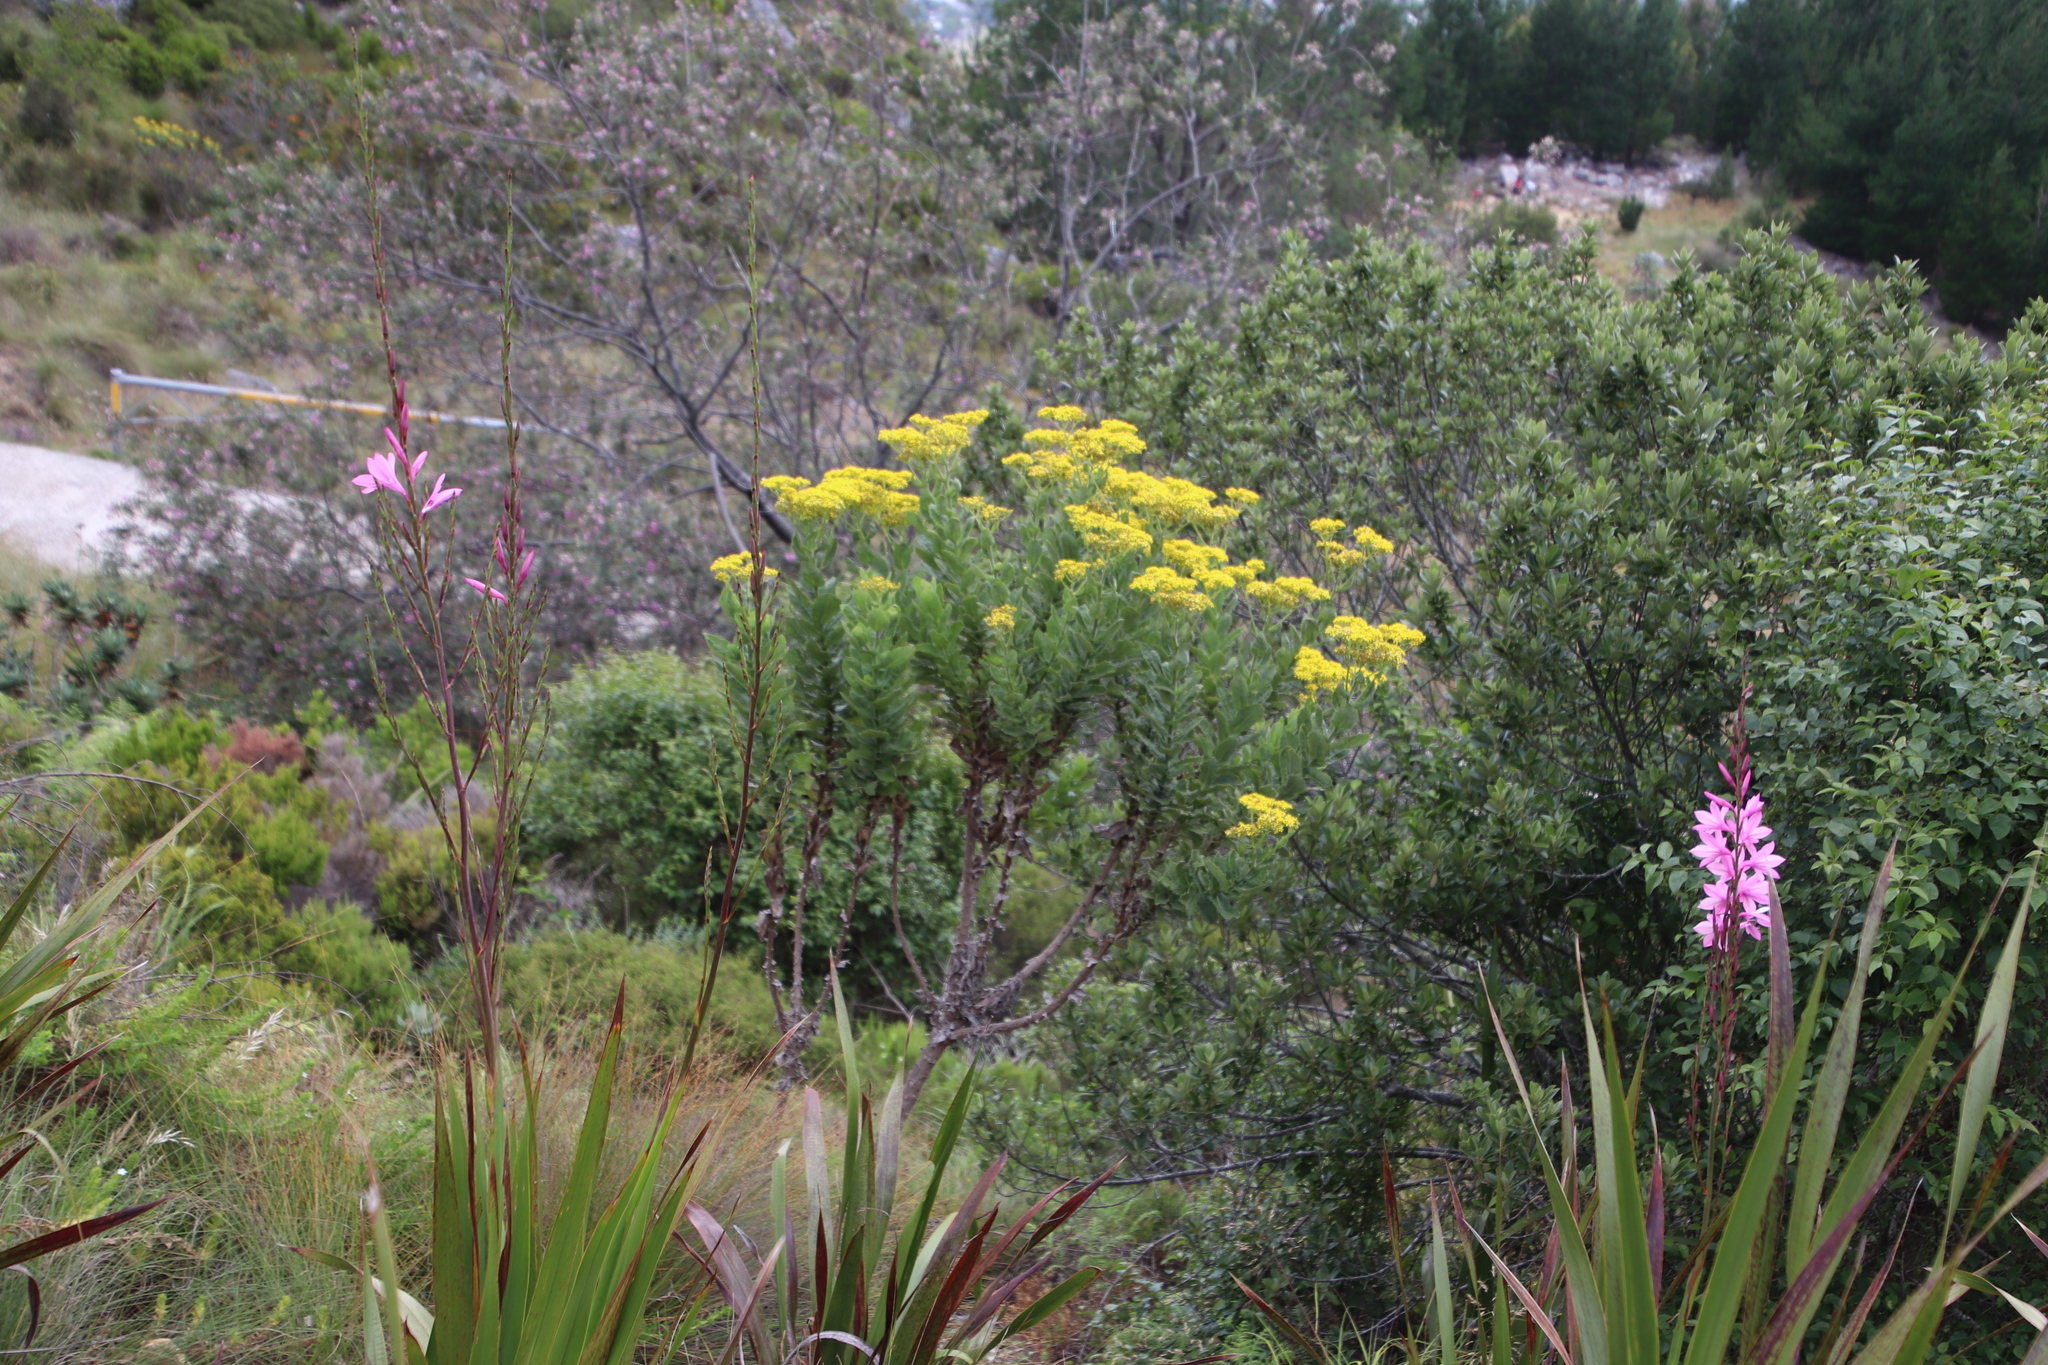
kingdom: Plantae
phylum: Tracheophyta
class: Magnoliopsida
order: Asterales
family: Asteraceae
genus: Senecio
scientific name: Senecio rigidus
